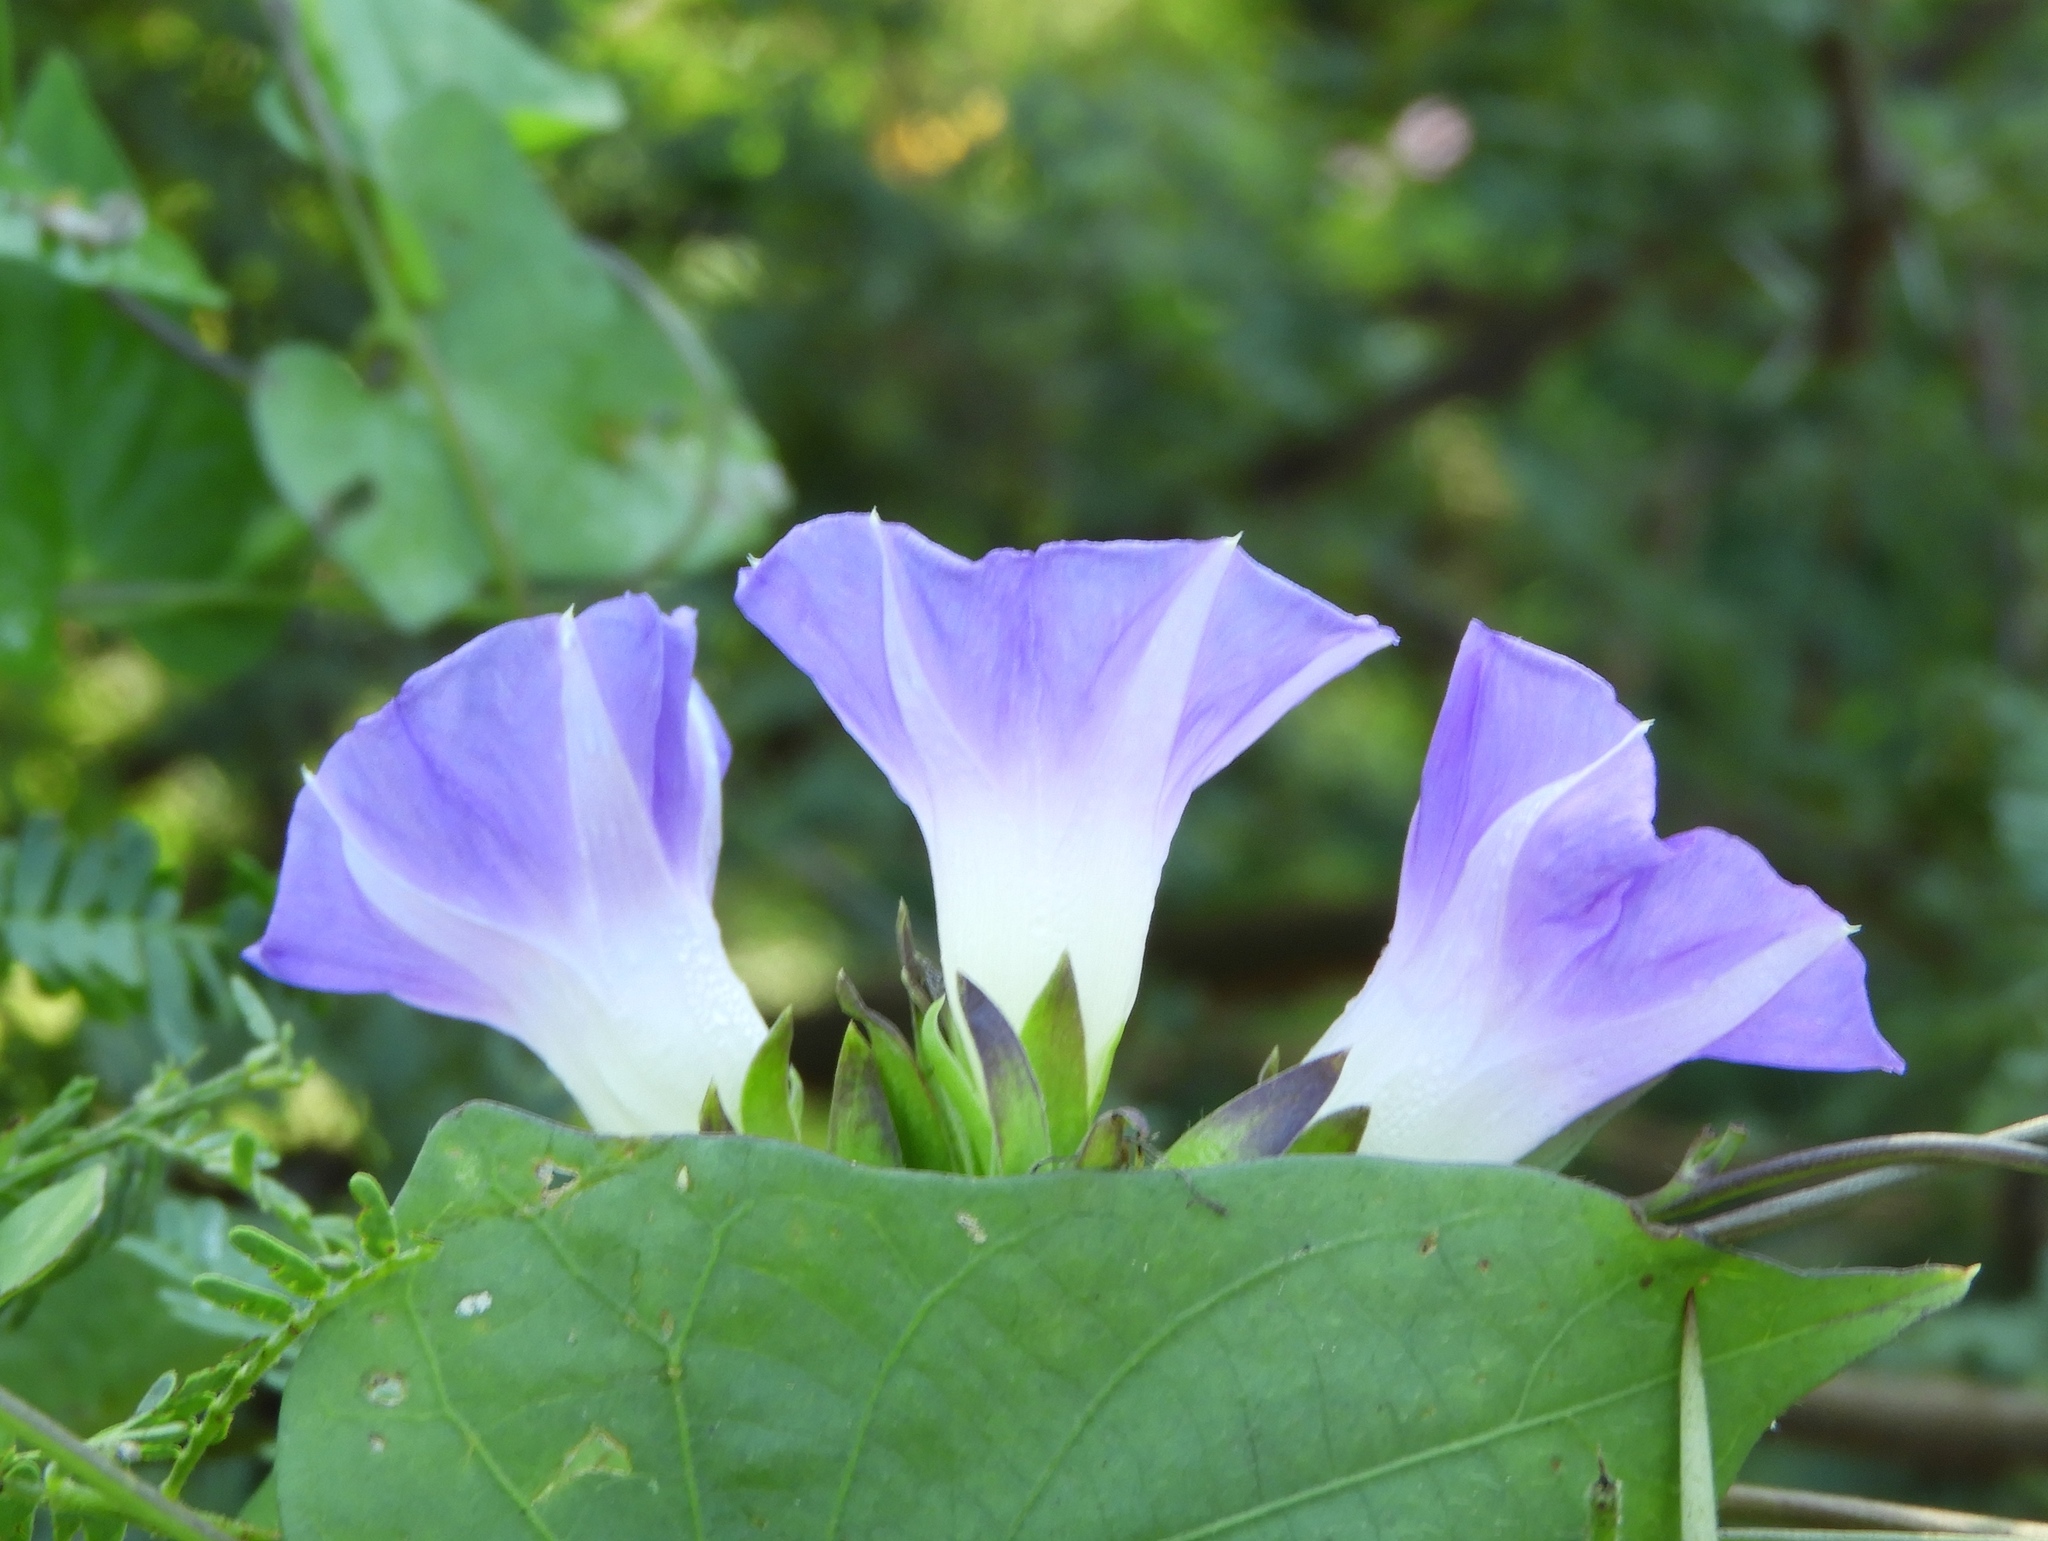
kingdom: Plantae
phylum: Tracheophyta
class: Magnoliopsida
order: Solanales
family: Convolvulaceae
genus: Ipomoea
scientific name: Ipomoea meyeri
